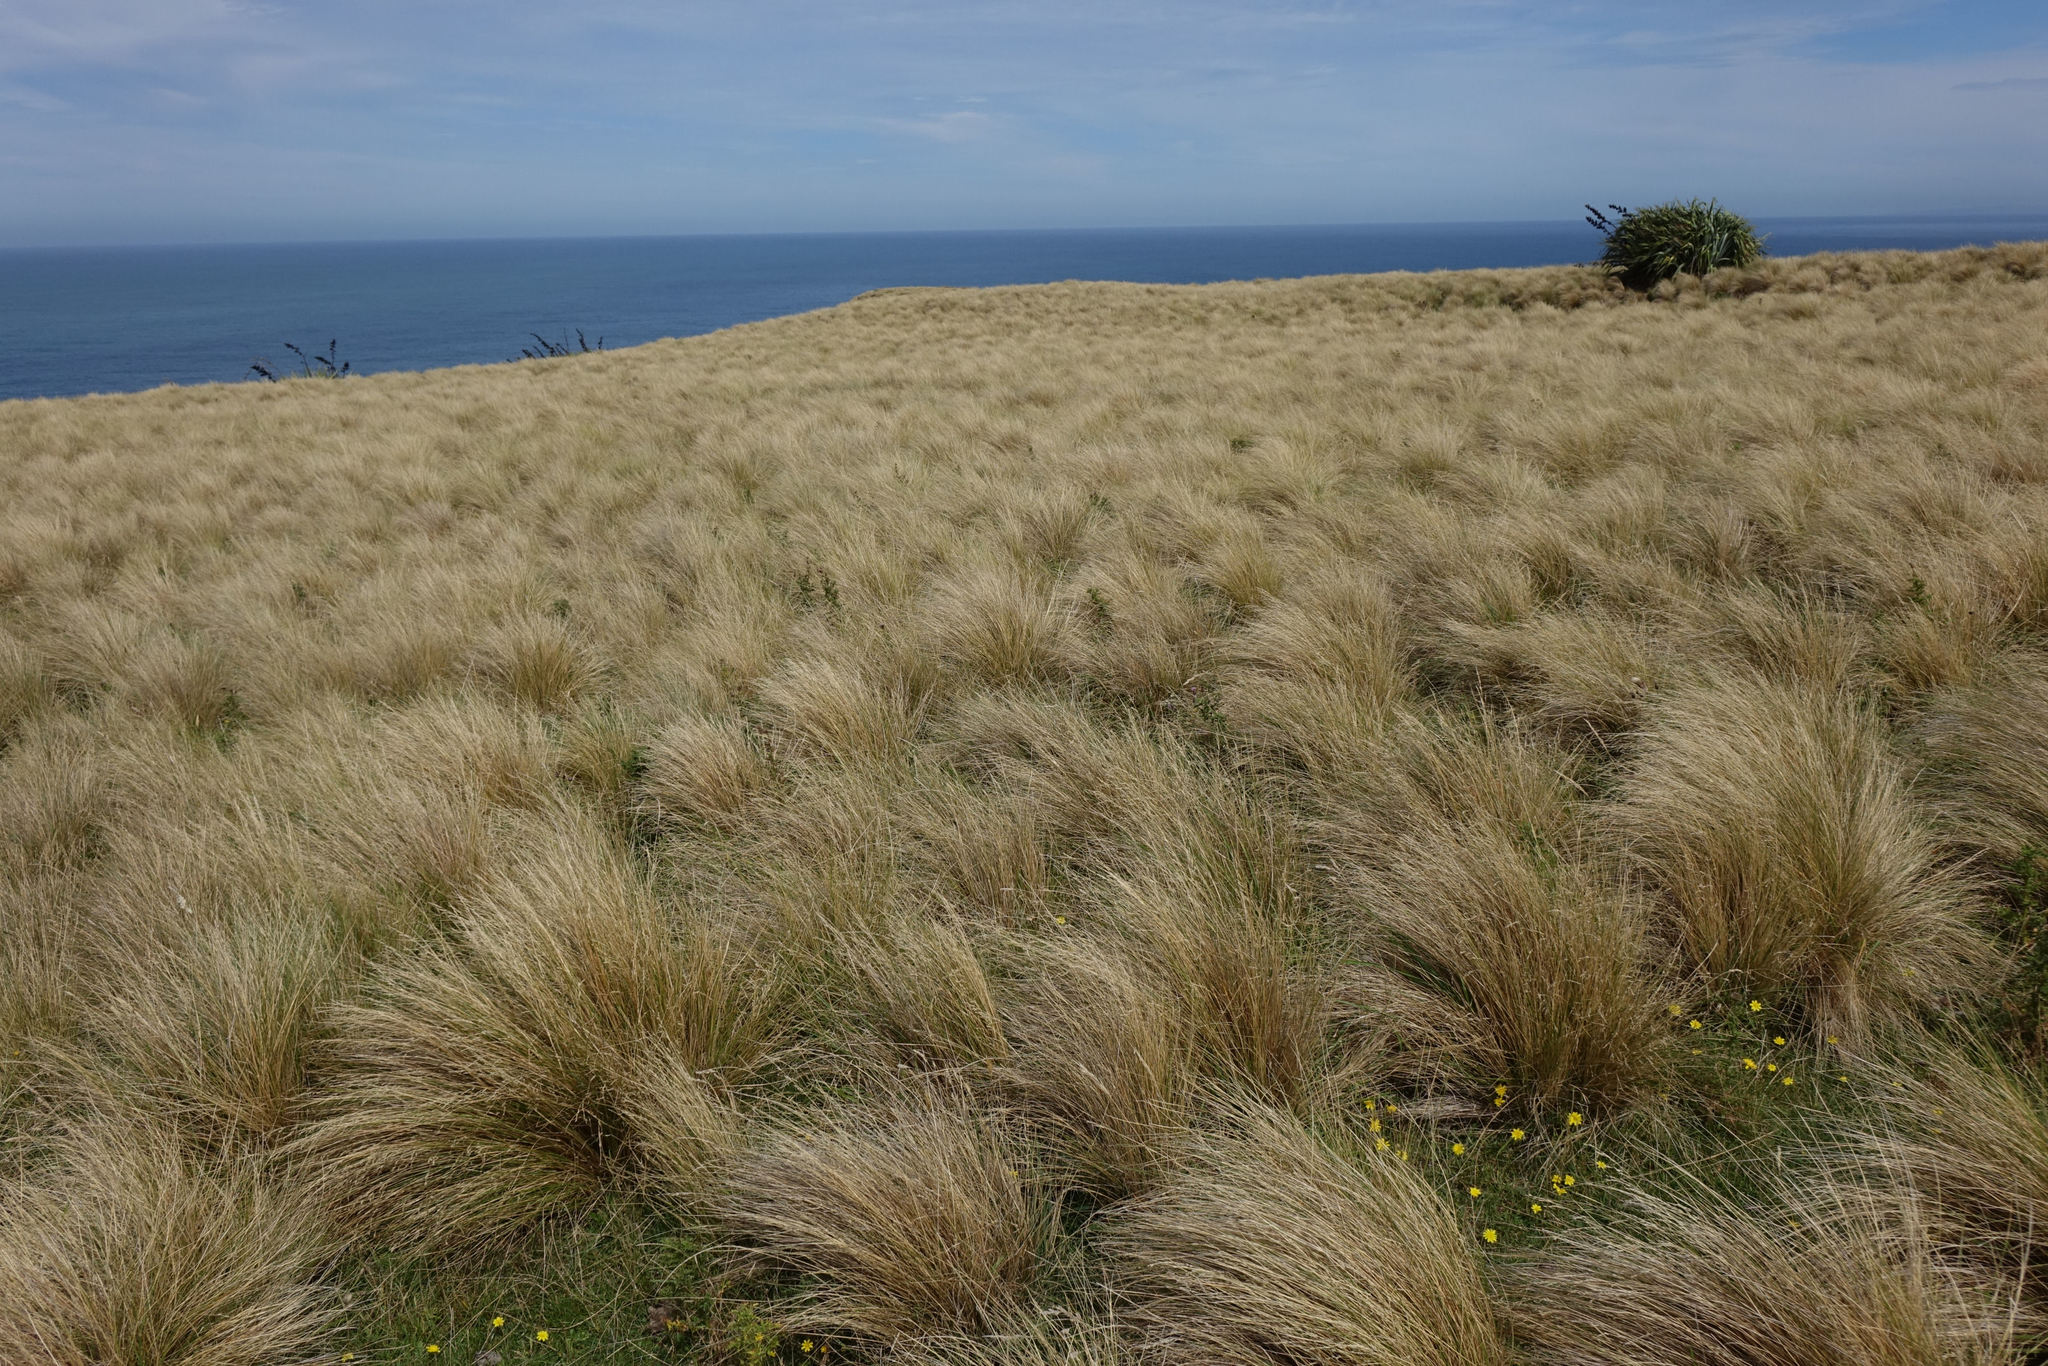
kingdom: Plantae
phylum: Tracheophyta
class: Liliopsida
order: Poales
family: Poaceae
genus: Poa
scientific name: Poa cita
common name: Silver tussock
